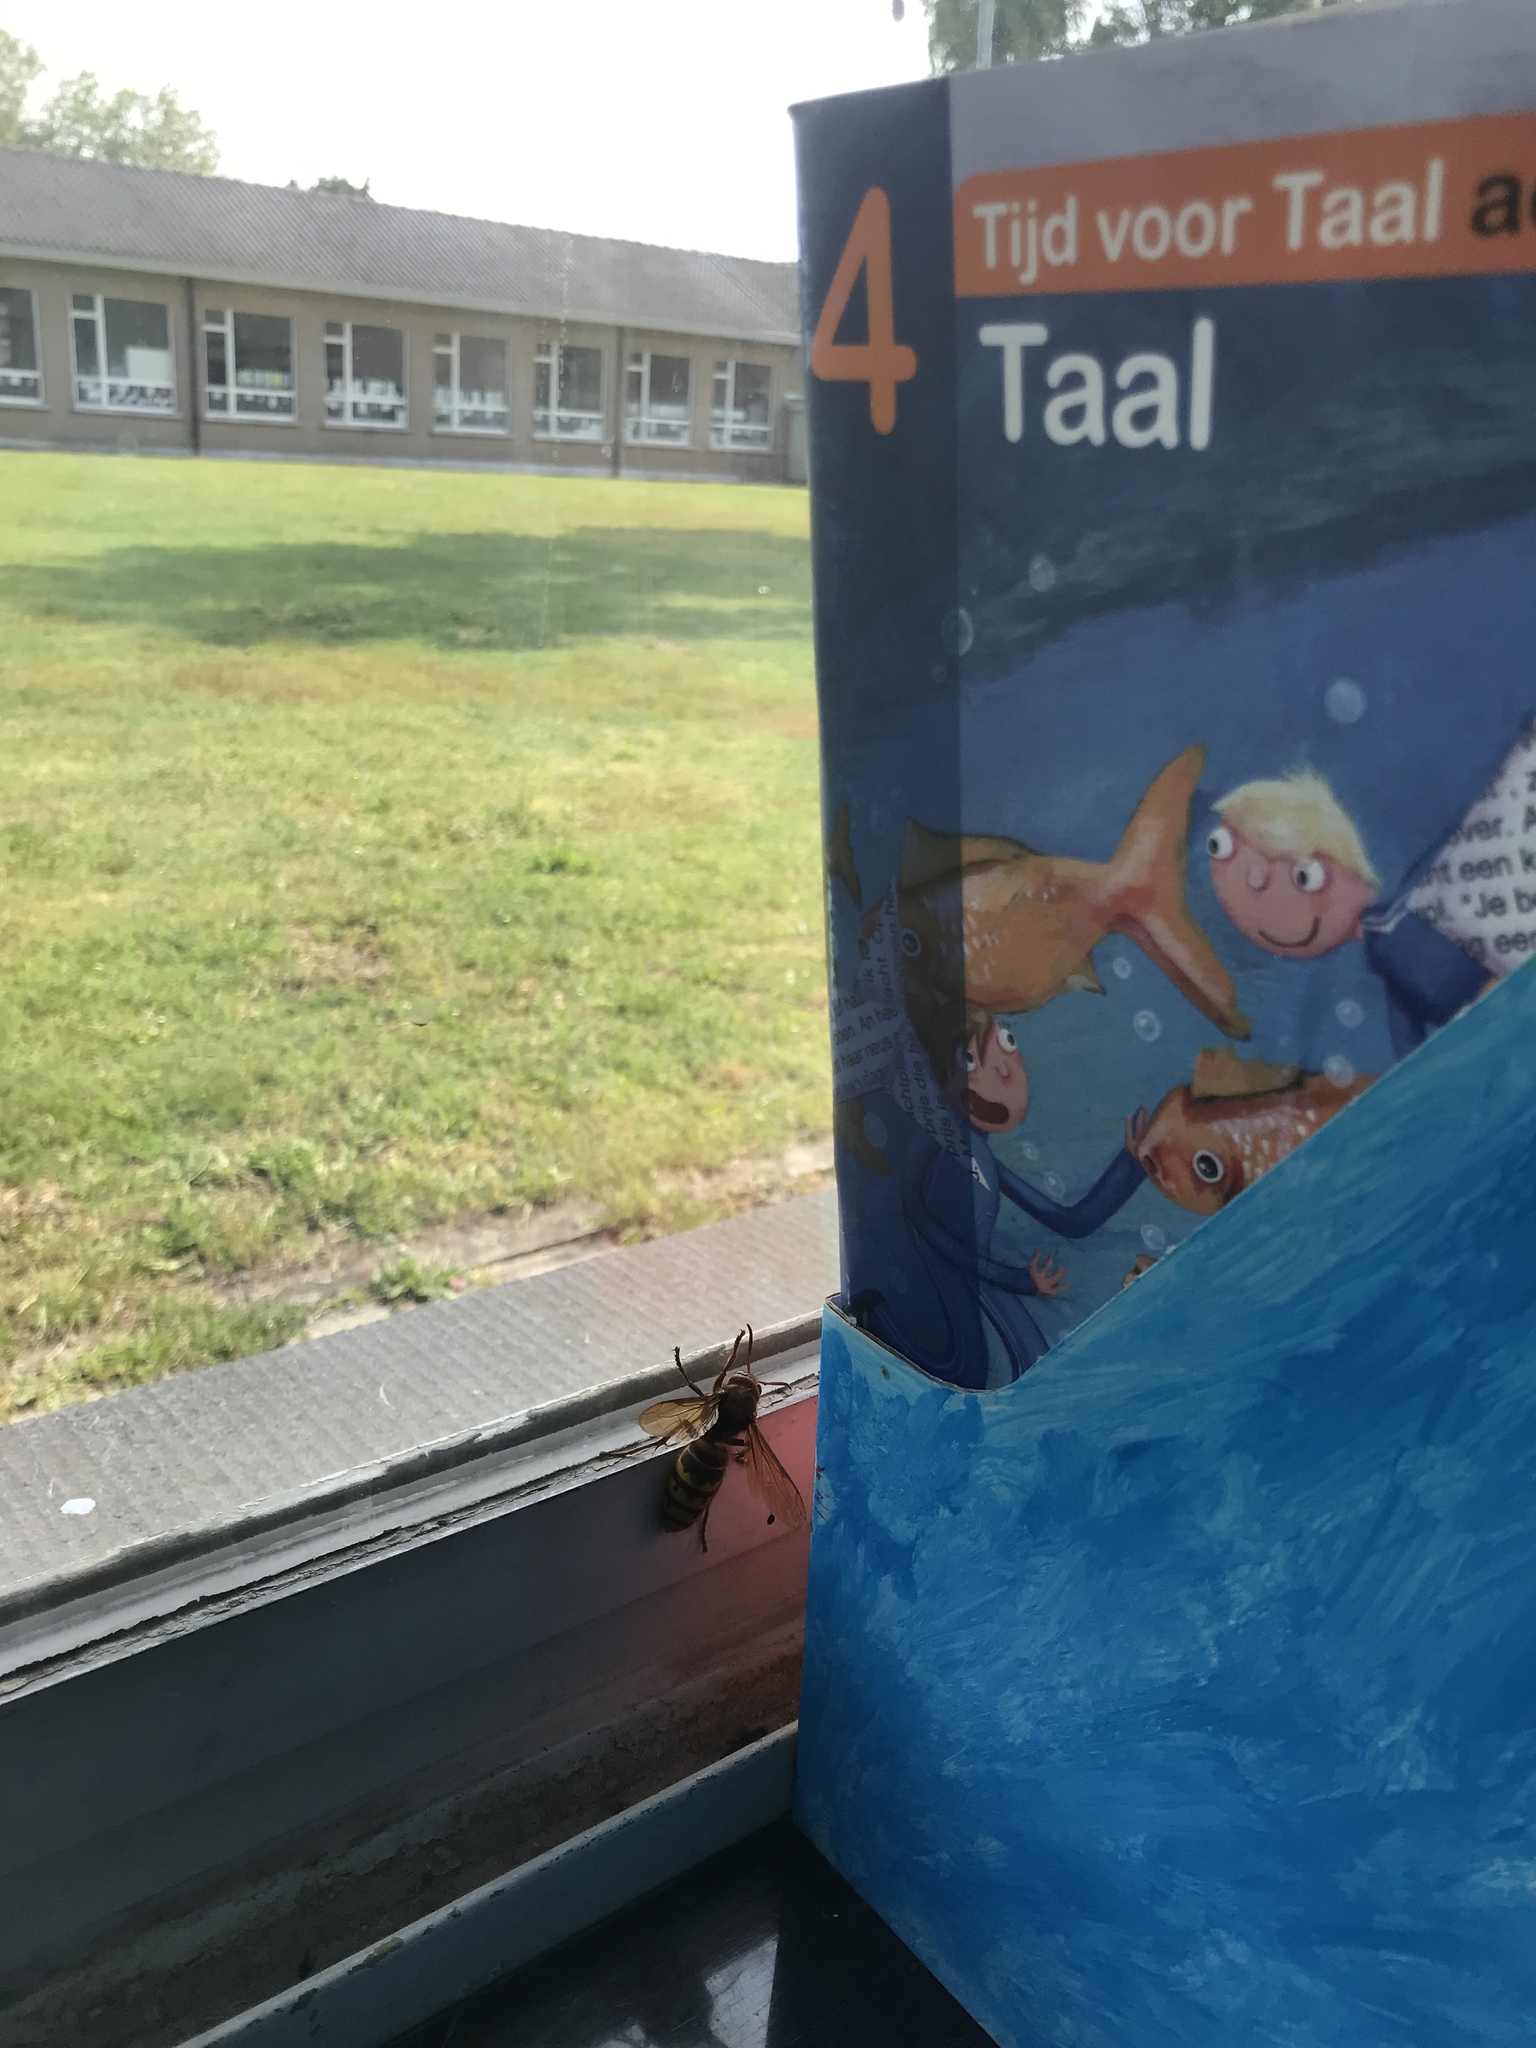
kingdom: Animalia
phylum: Arthropoda
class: Insecta
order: Hymenoptera
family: Vespidae
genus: Vespa
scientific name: Vespa crabro
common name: Hornet
